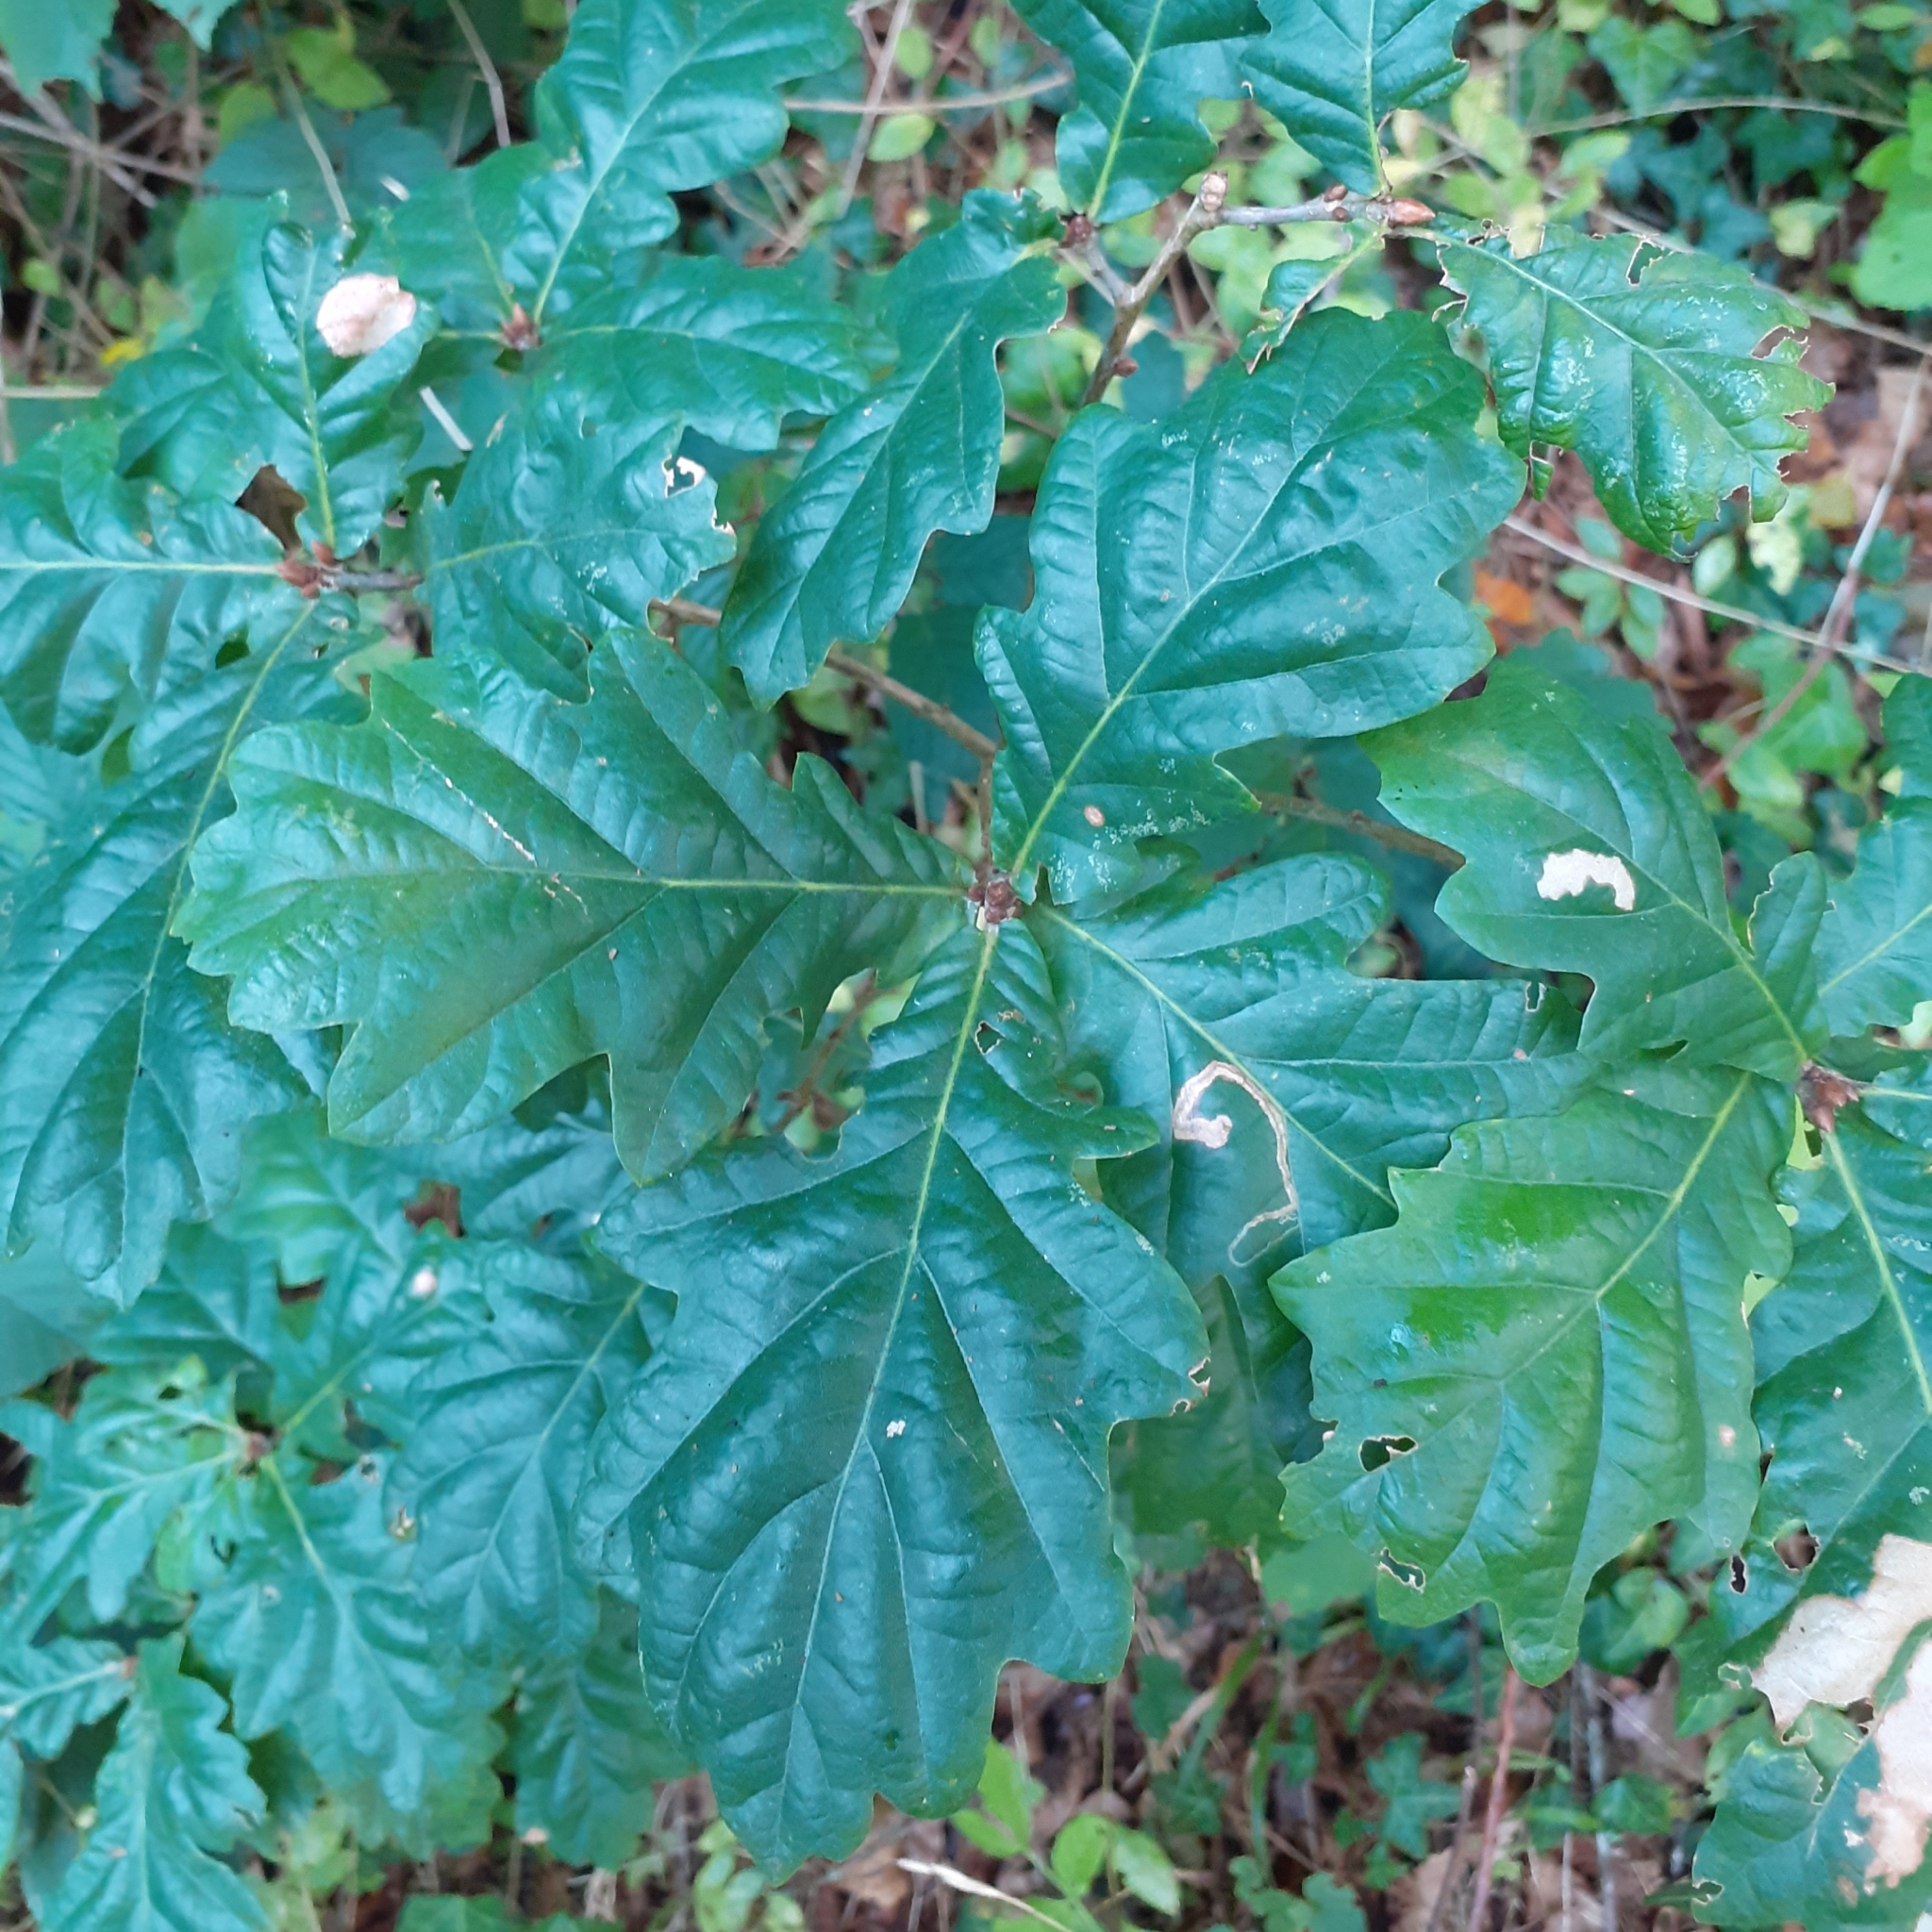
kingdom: Plantae
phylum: Tracheophyta
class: Magnoliopsida
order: Fagales
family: Fagaceae
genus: Quercus
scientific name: Quercus robur
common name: Pedunculate oak
